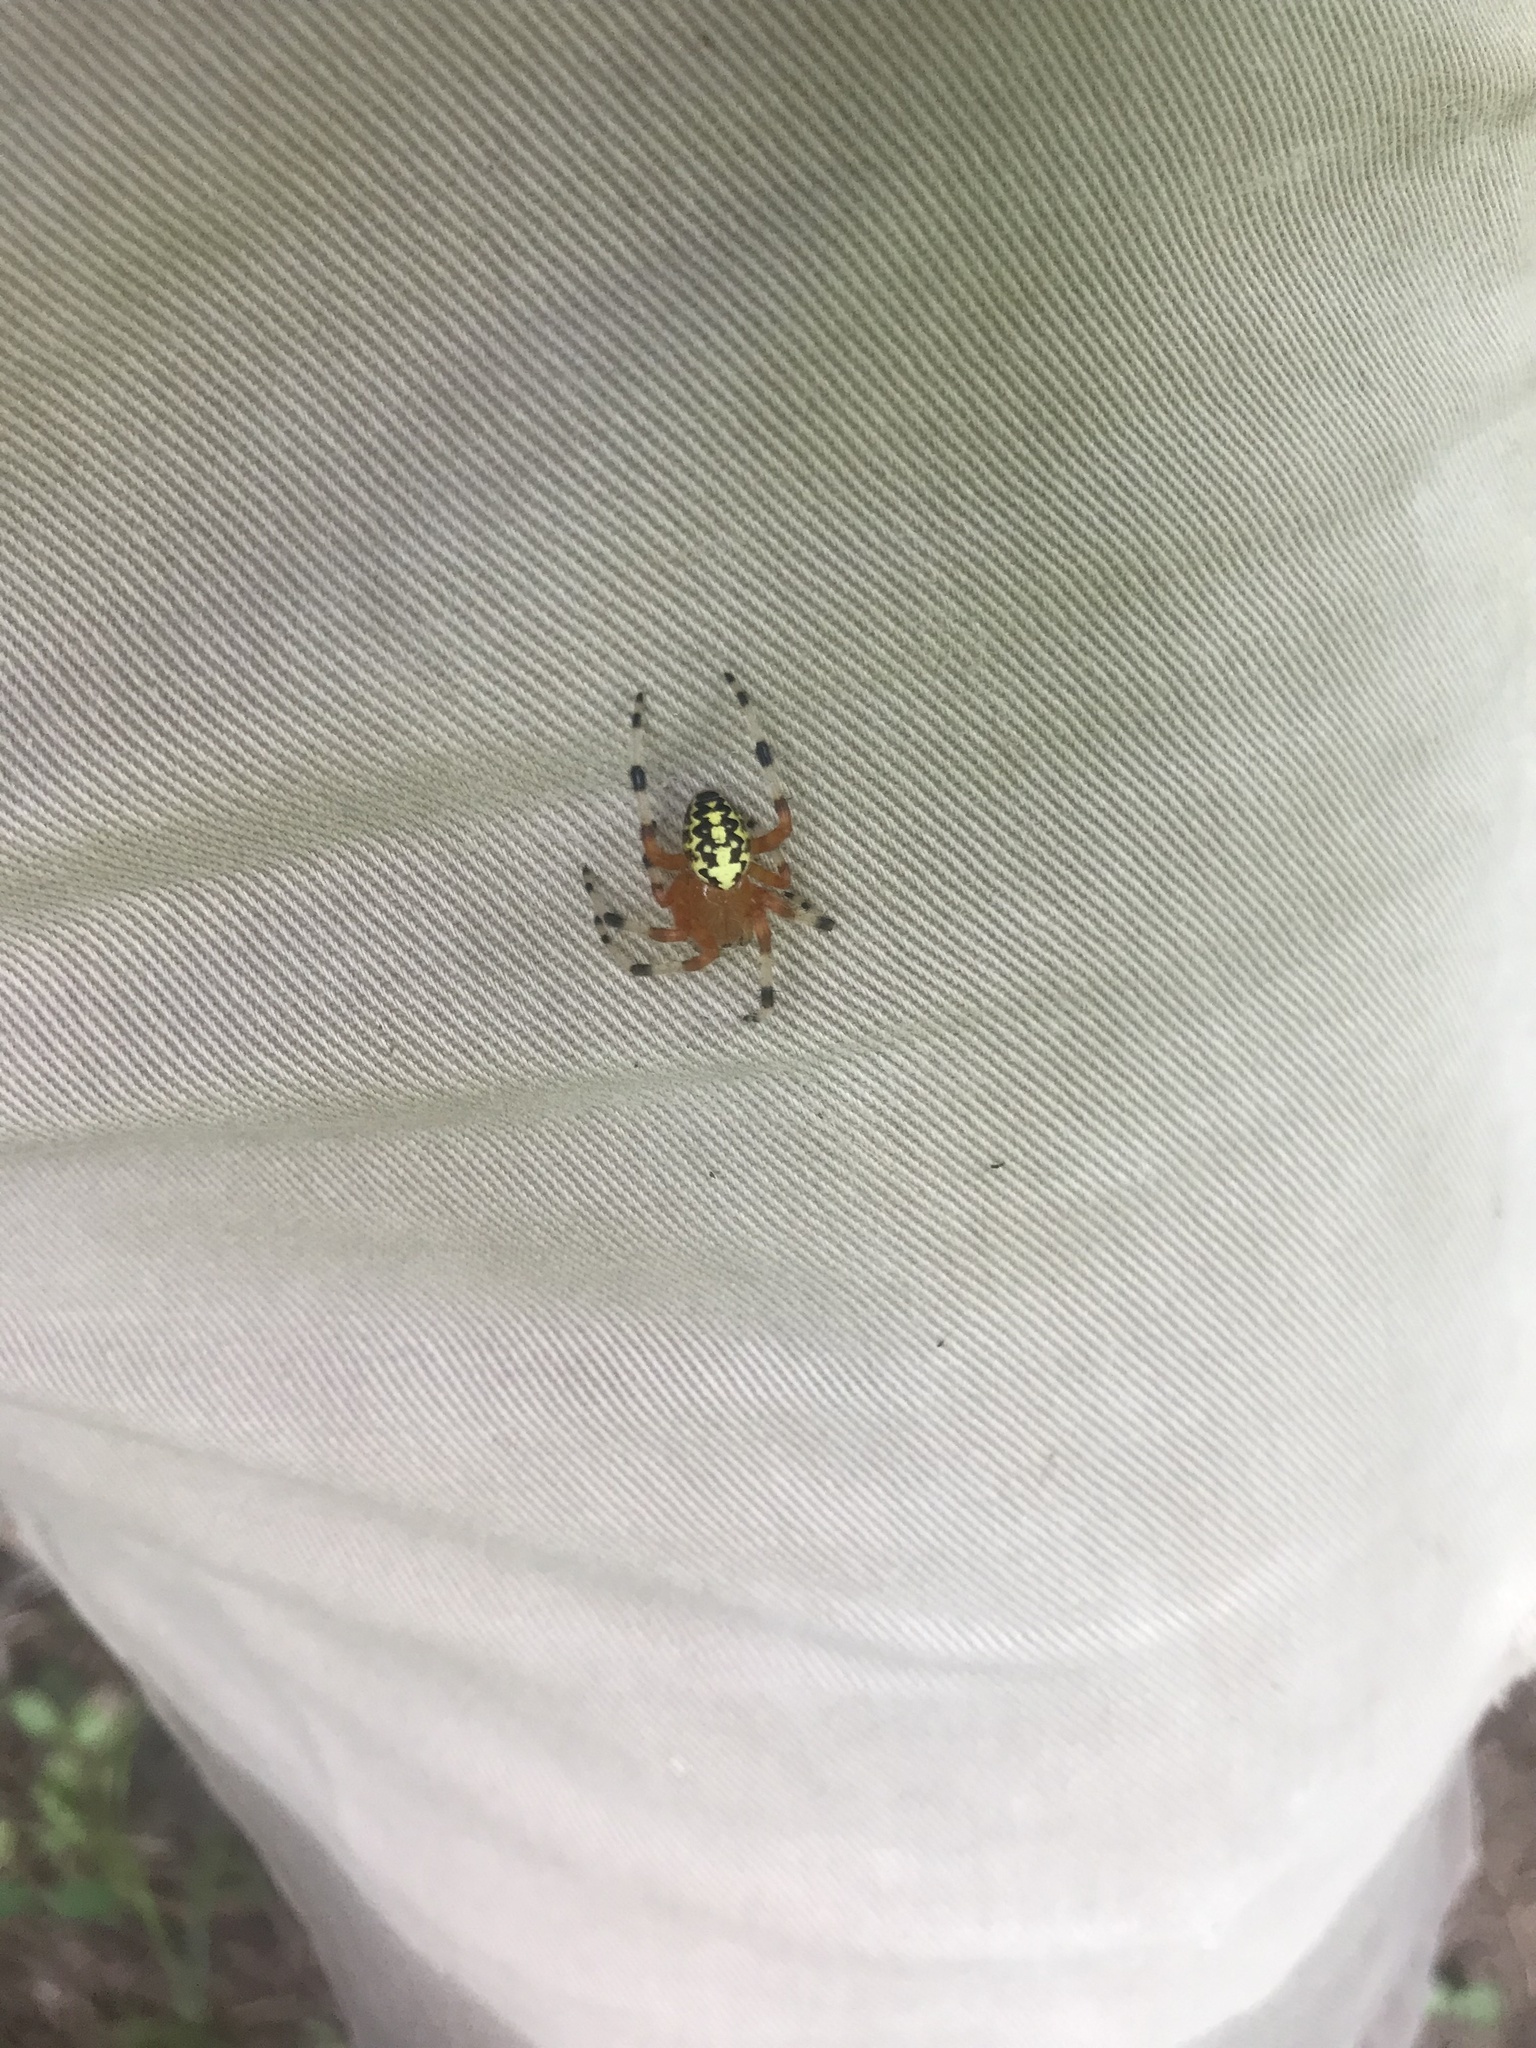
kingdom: Animalia
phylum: Arthropoda
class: Arachnida
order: Araneae
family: Araneidae
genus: Araneus
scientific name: Araneus marmoreus
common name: Marbled orbweaver
